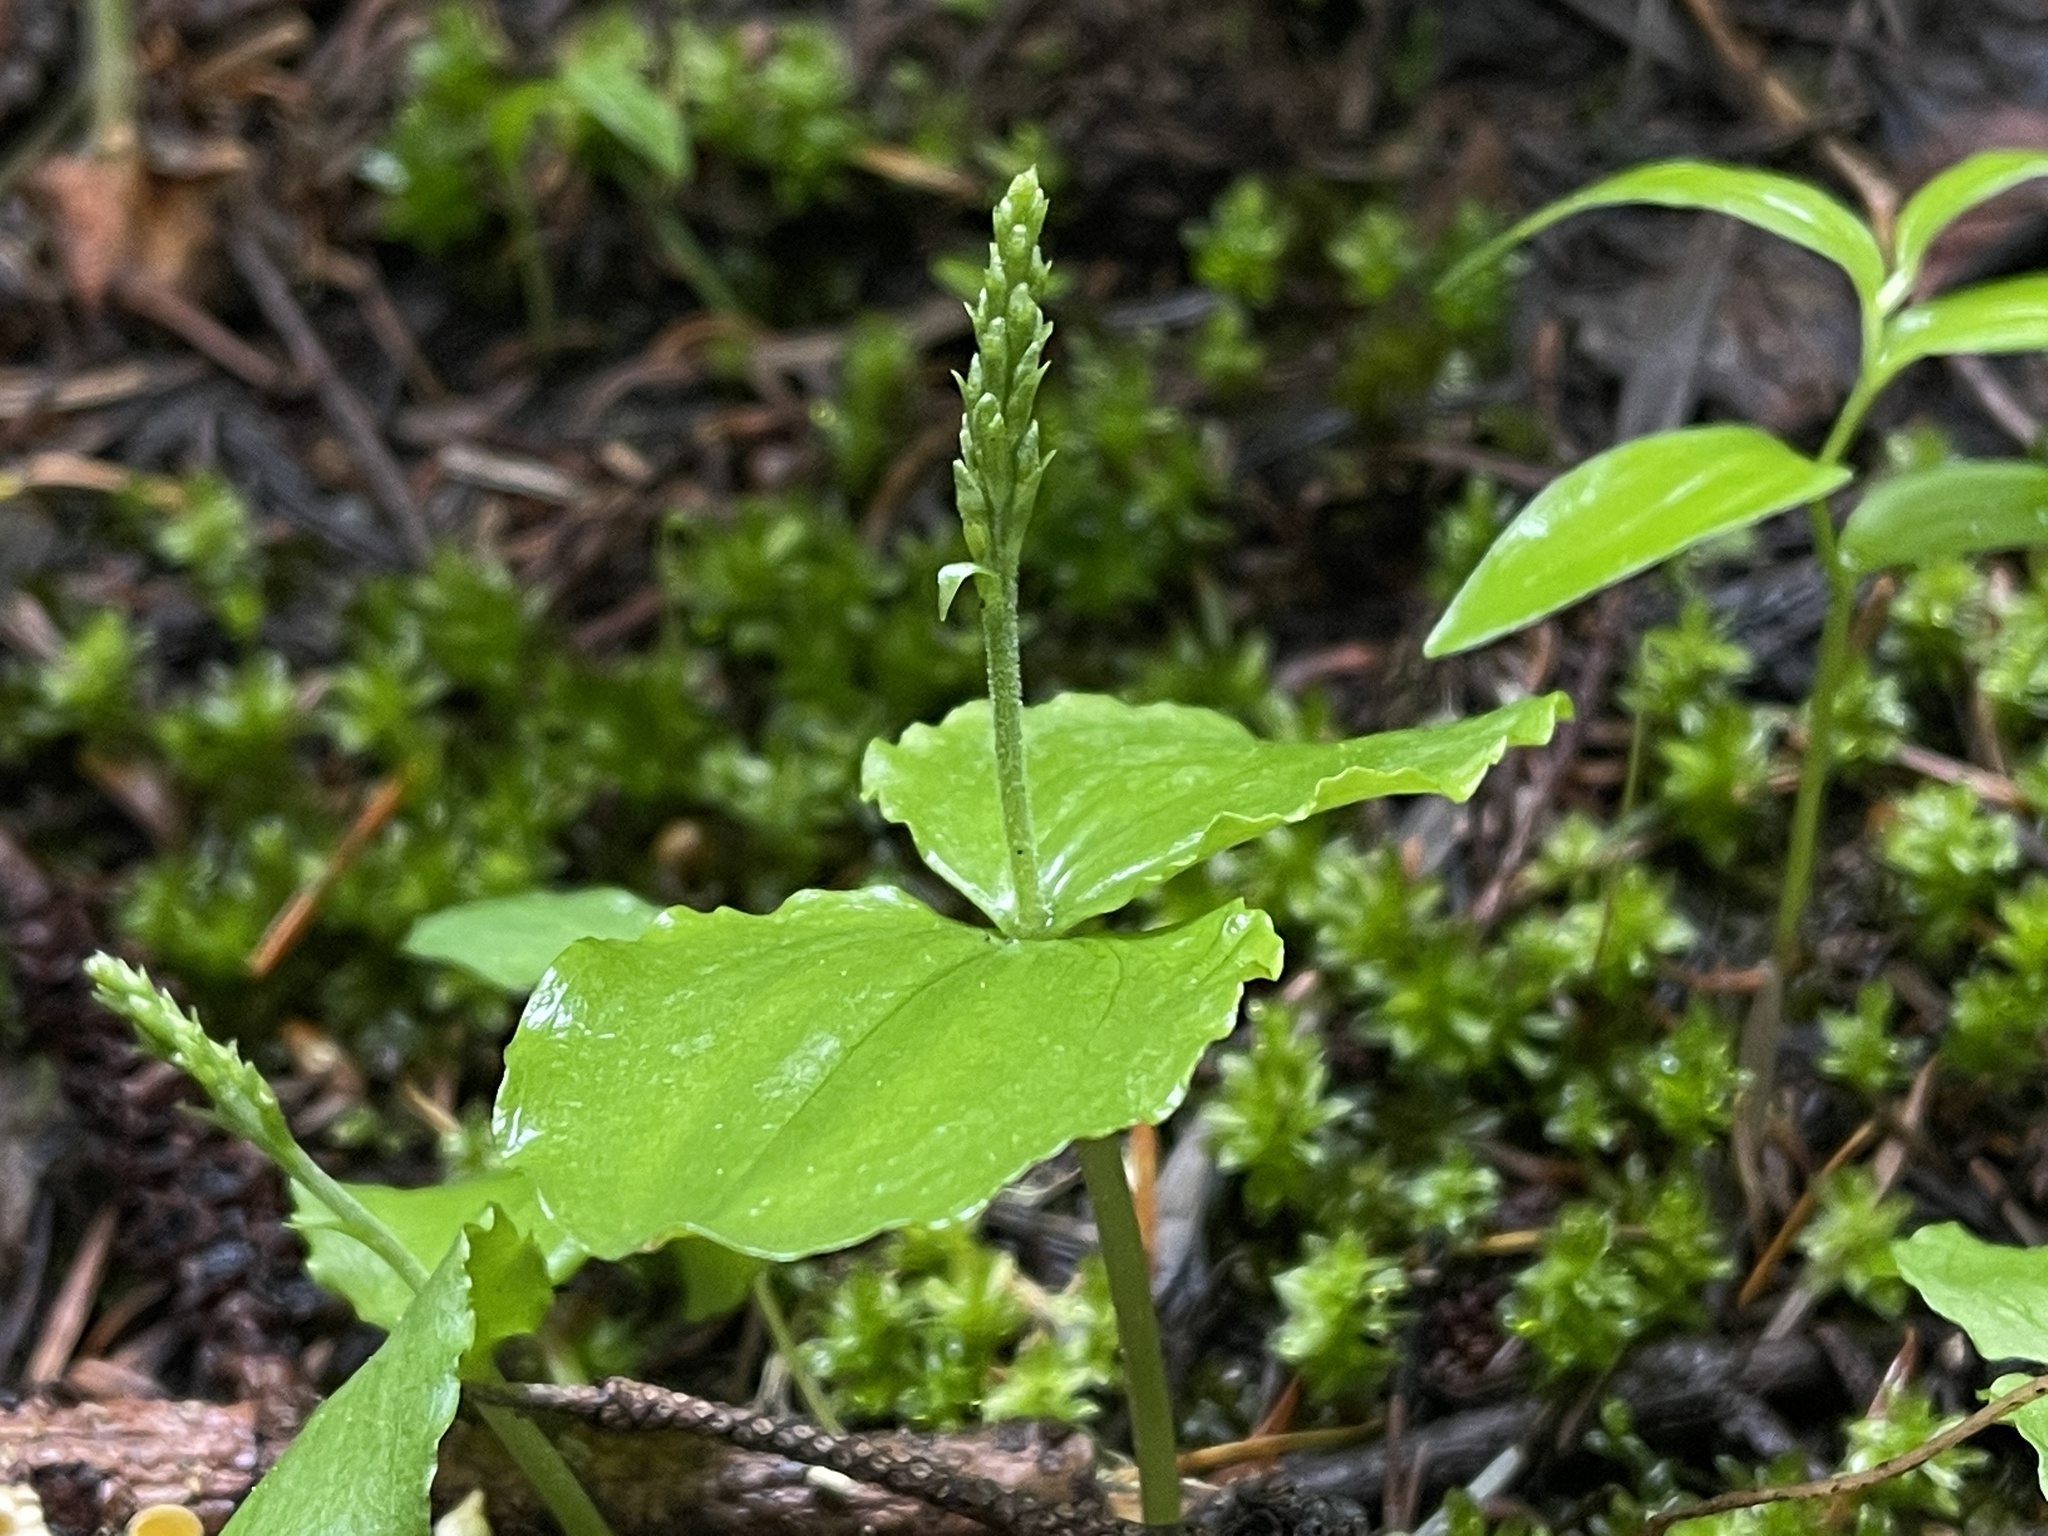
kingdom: Plantae
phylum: Tracheophyta
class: Liliopsida
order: Asparagales
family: Orchidaceae
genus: Neottia
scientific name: Neottia banksiana
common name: Northwestern twayblade
